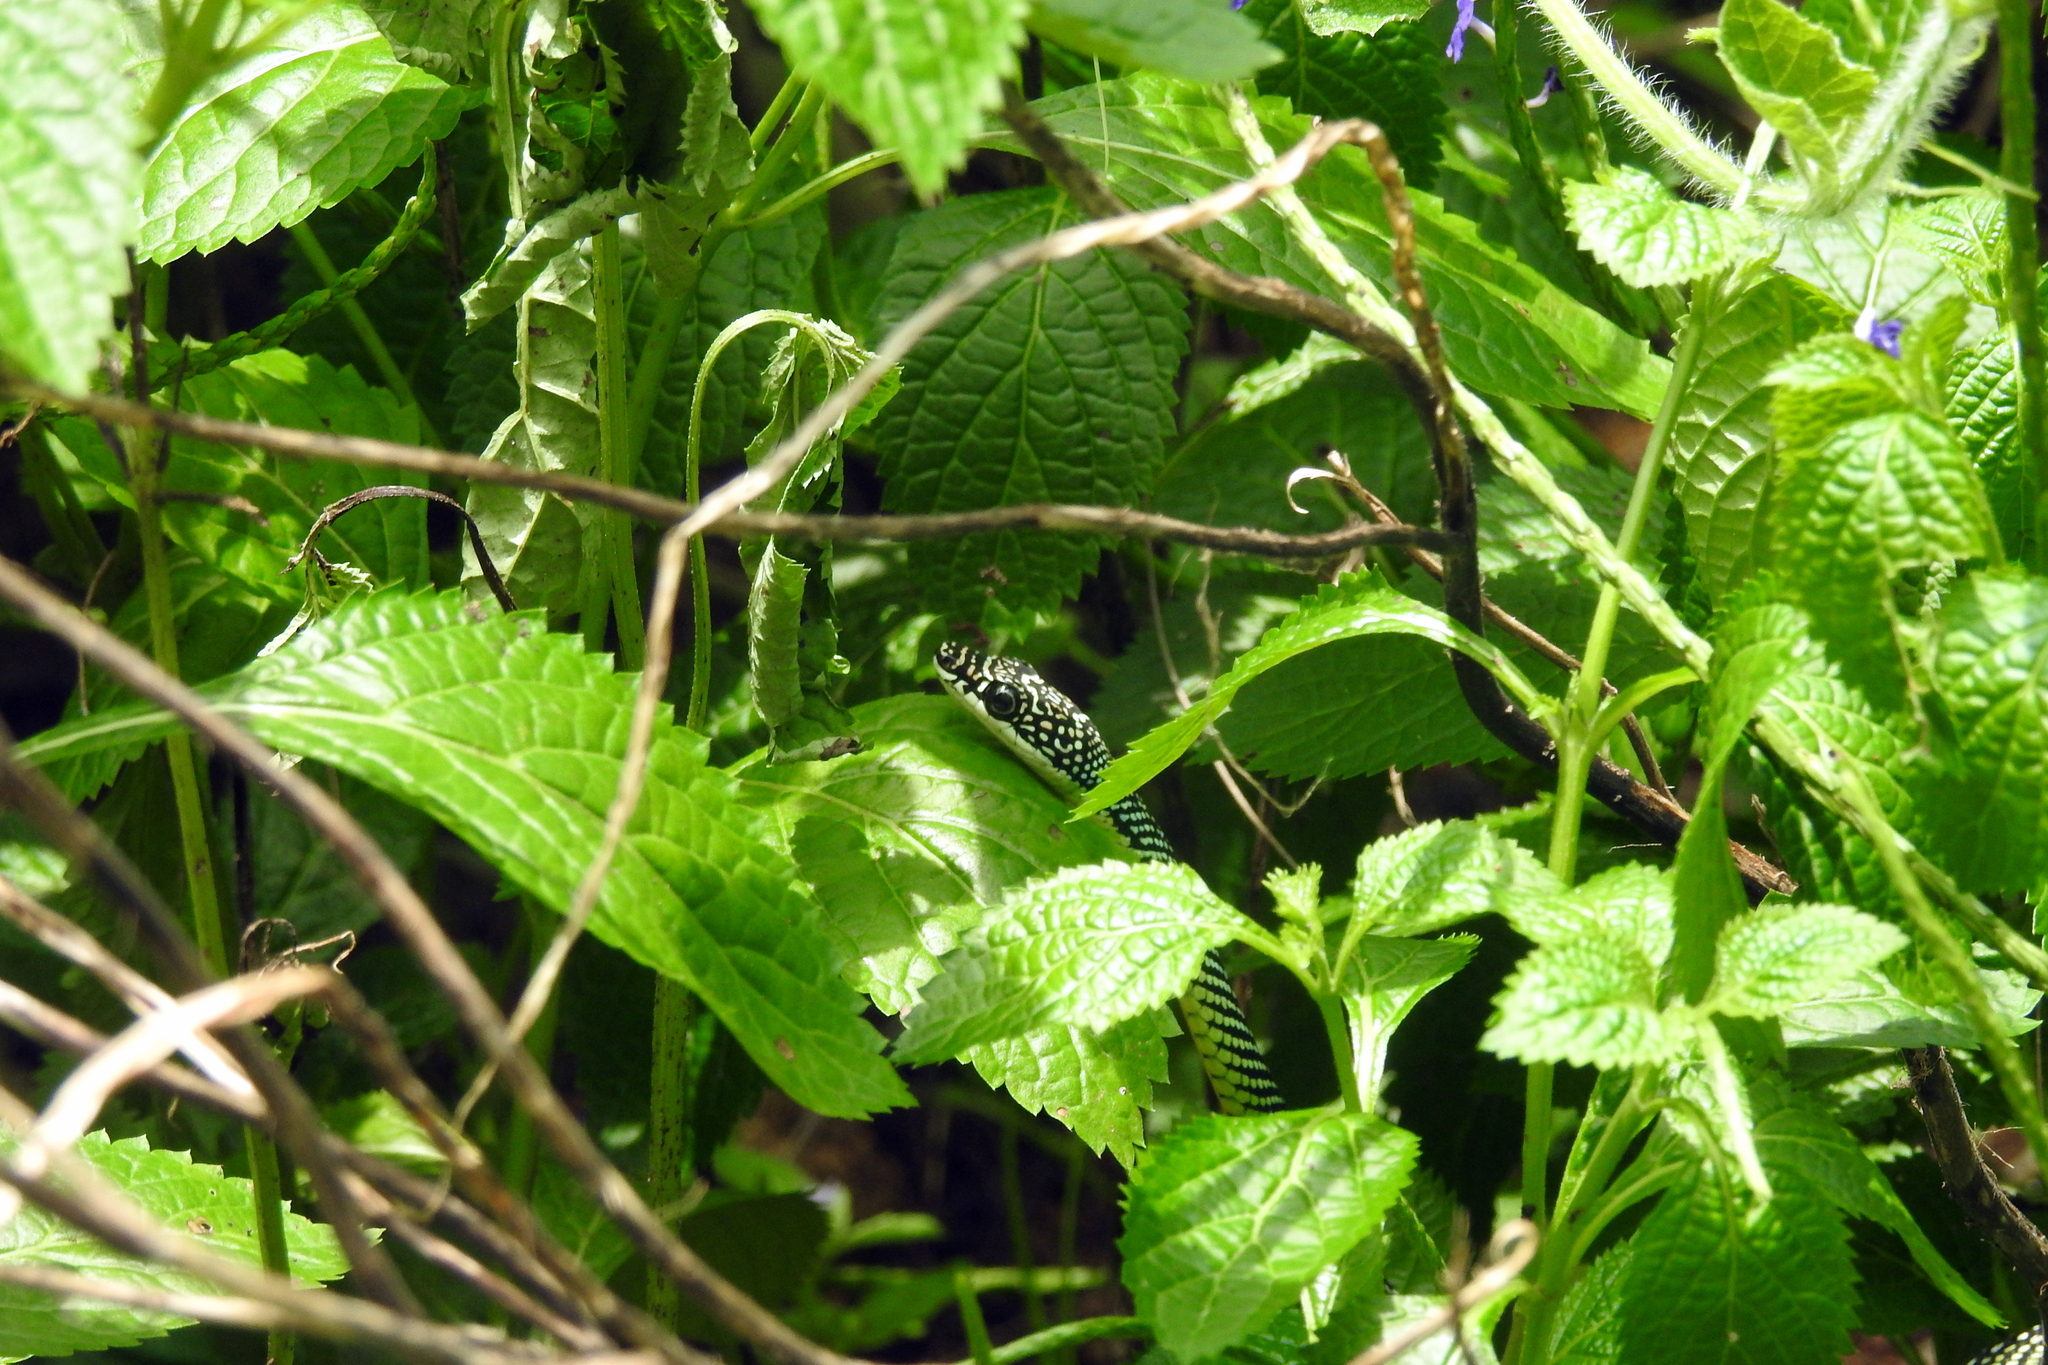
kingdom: Animalia
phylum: Chordata
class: Squamata
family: Colubridae
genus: Chrysopelea
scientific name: Chrysopelea paradisi
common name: Paradise tree snake
